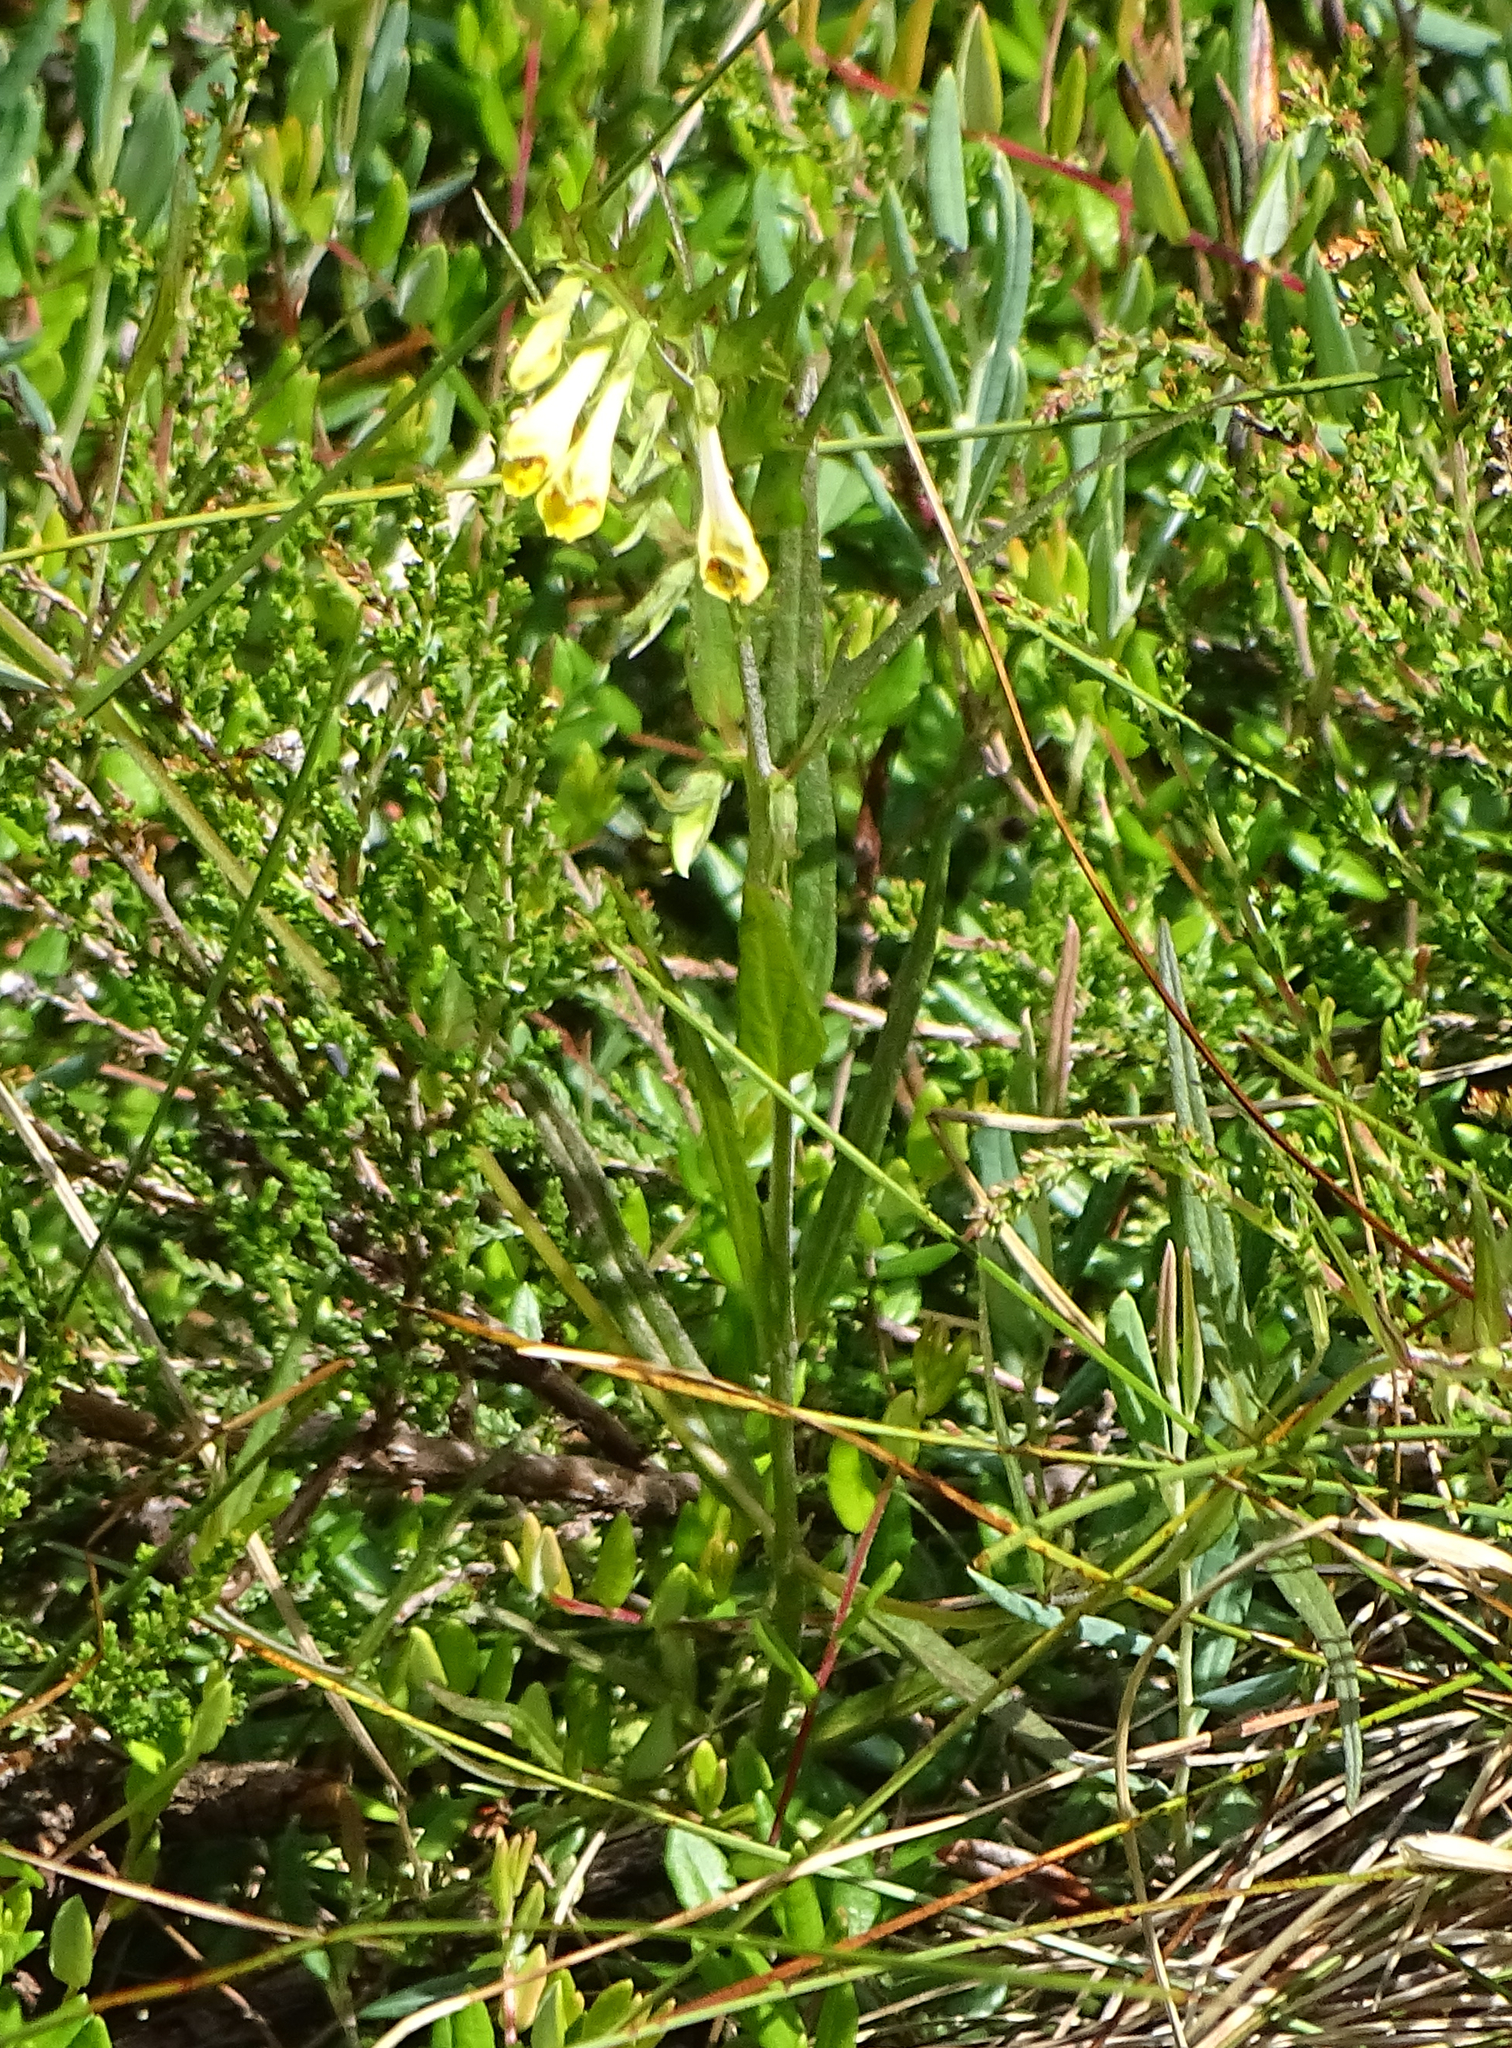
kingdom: Plantae
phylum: Tracheophyta
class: Magnoliopsida
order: Lamiales
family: Orobanchaceae
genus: Melampyrum
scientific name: Melampyrum pratense
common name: Common cow-wheat
